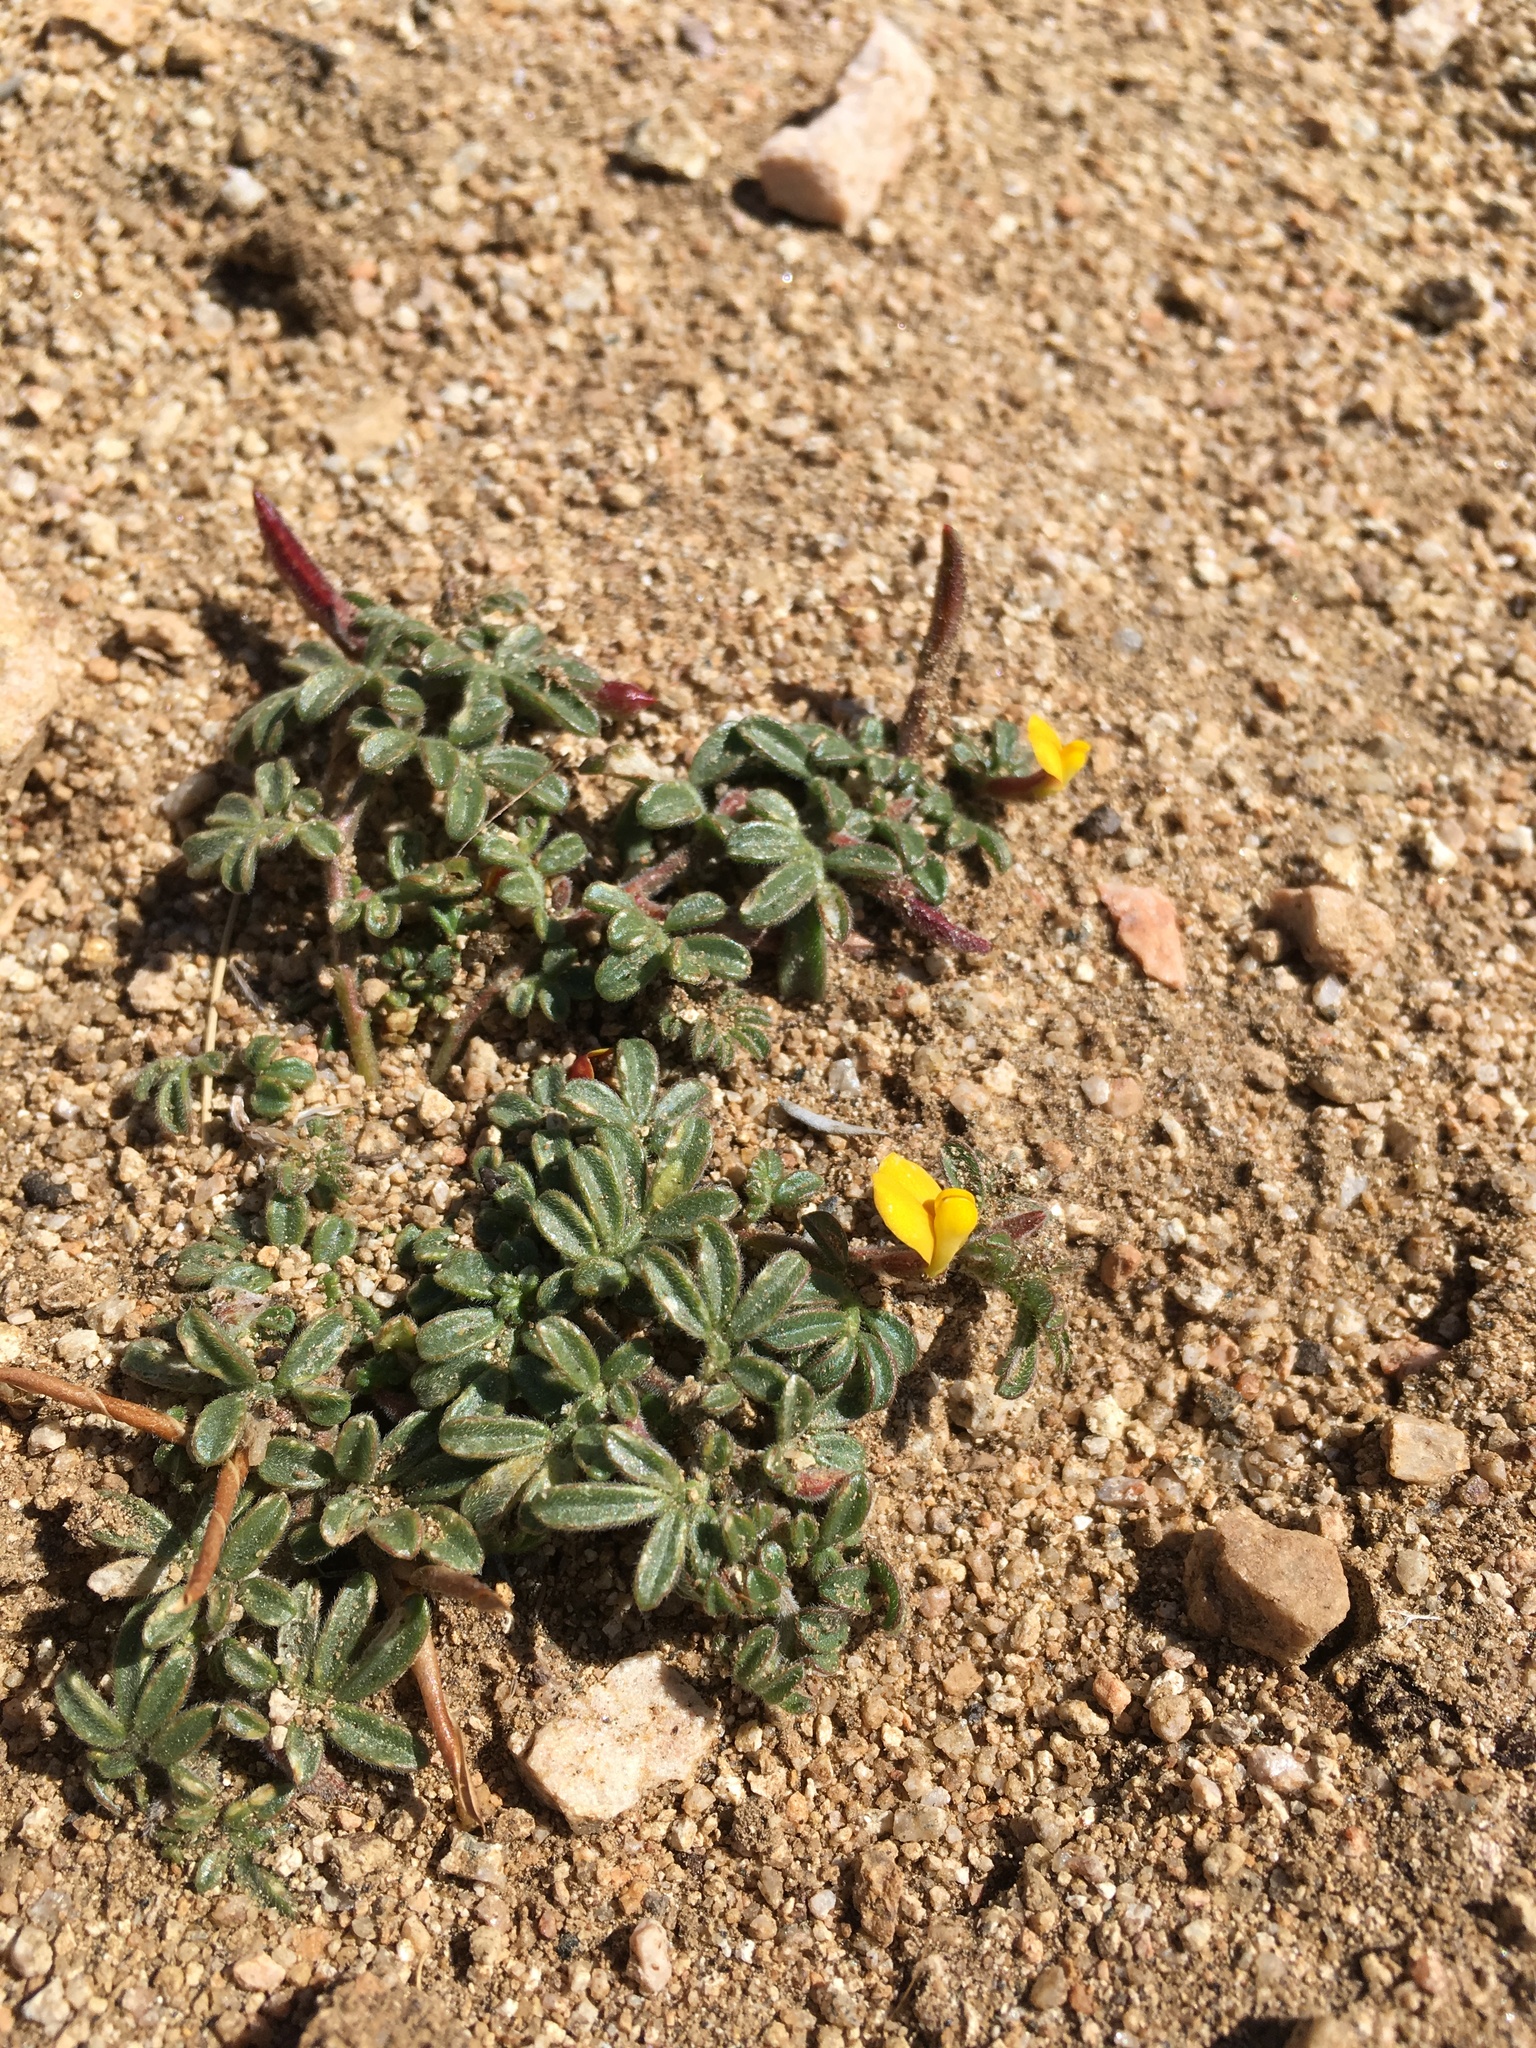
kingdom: Plantae
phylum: Tracheophyta
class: Magnoliopsida
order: Fabales
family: Fabaceae
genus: Acmispon
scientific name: Acmispon strigosus
